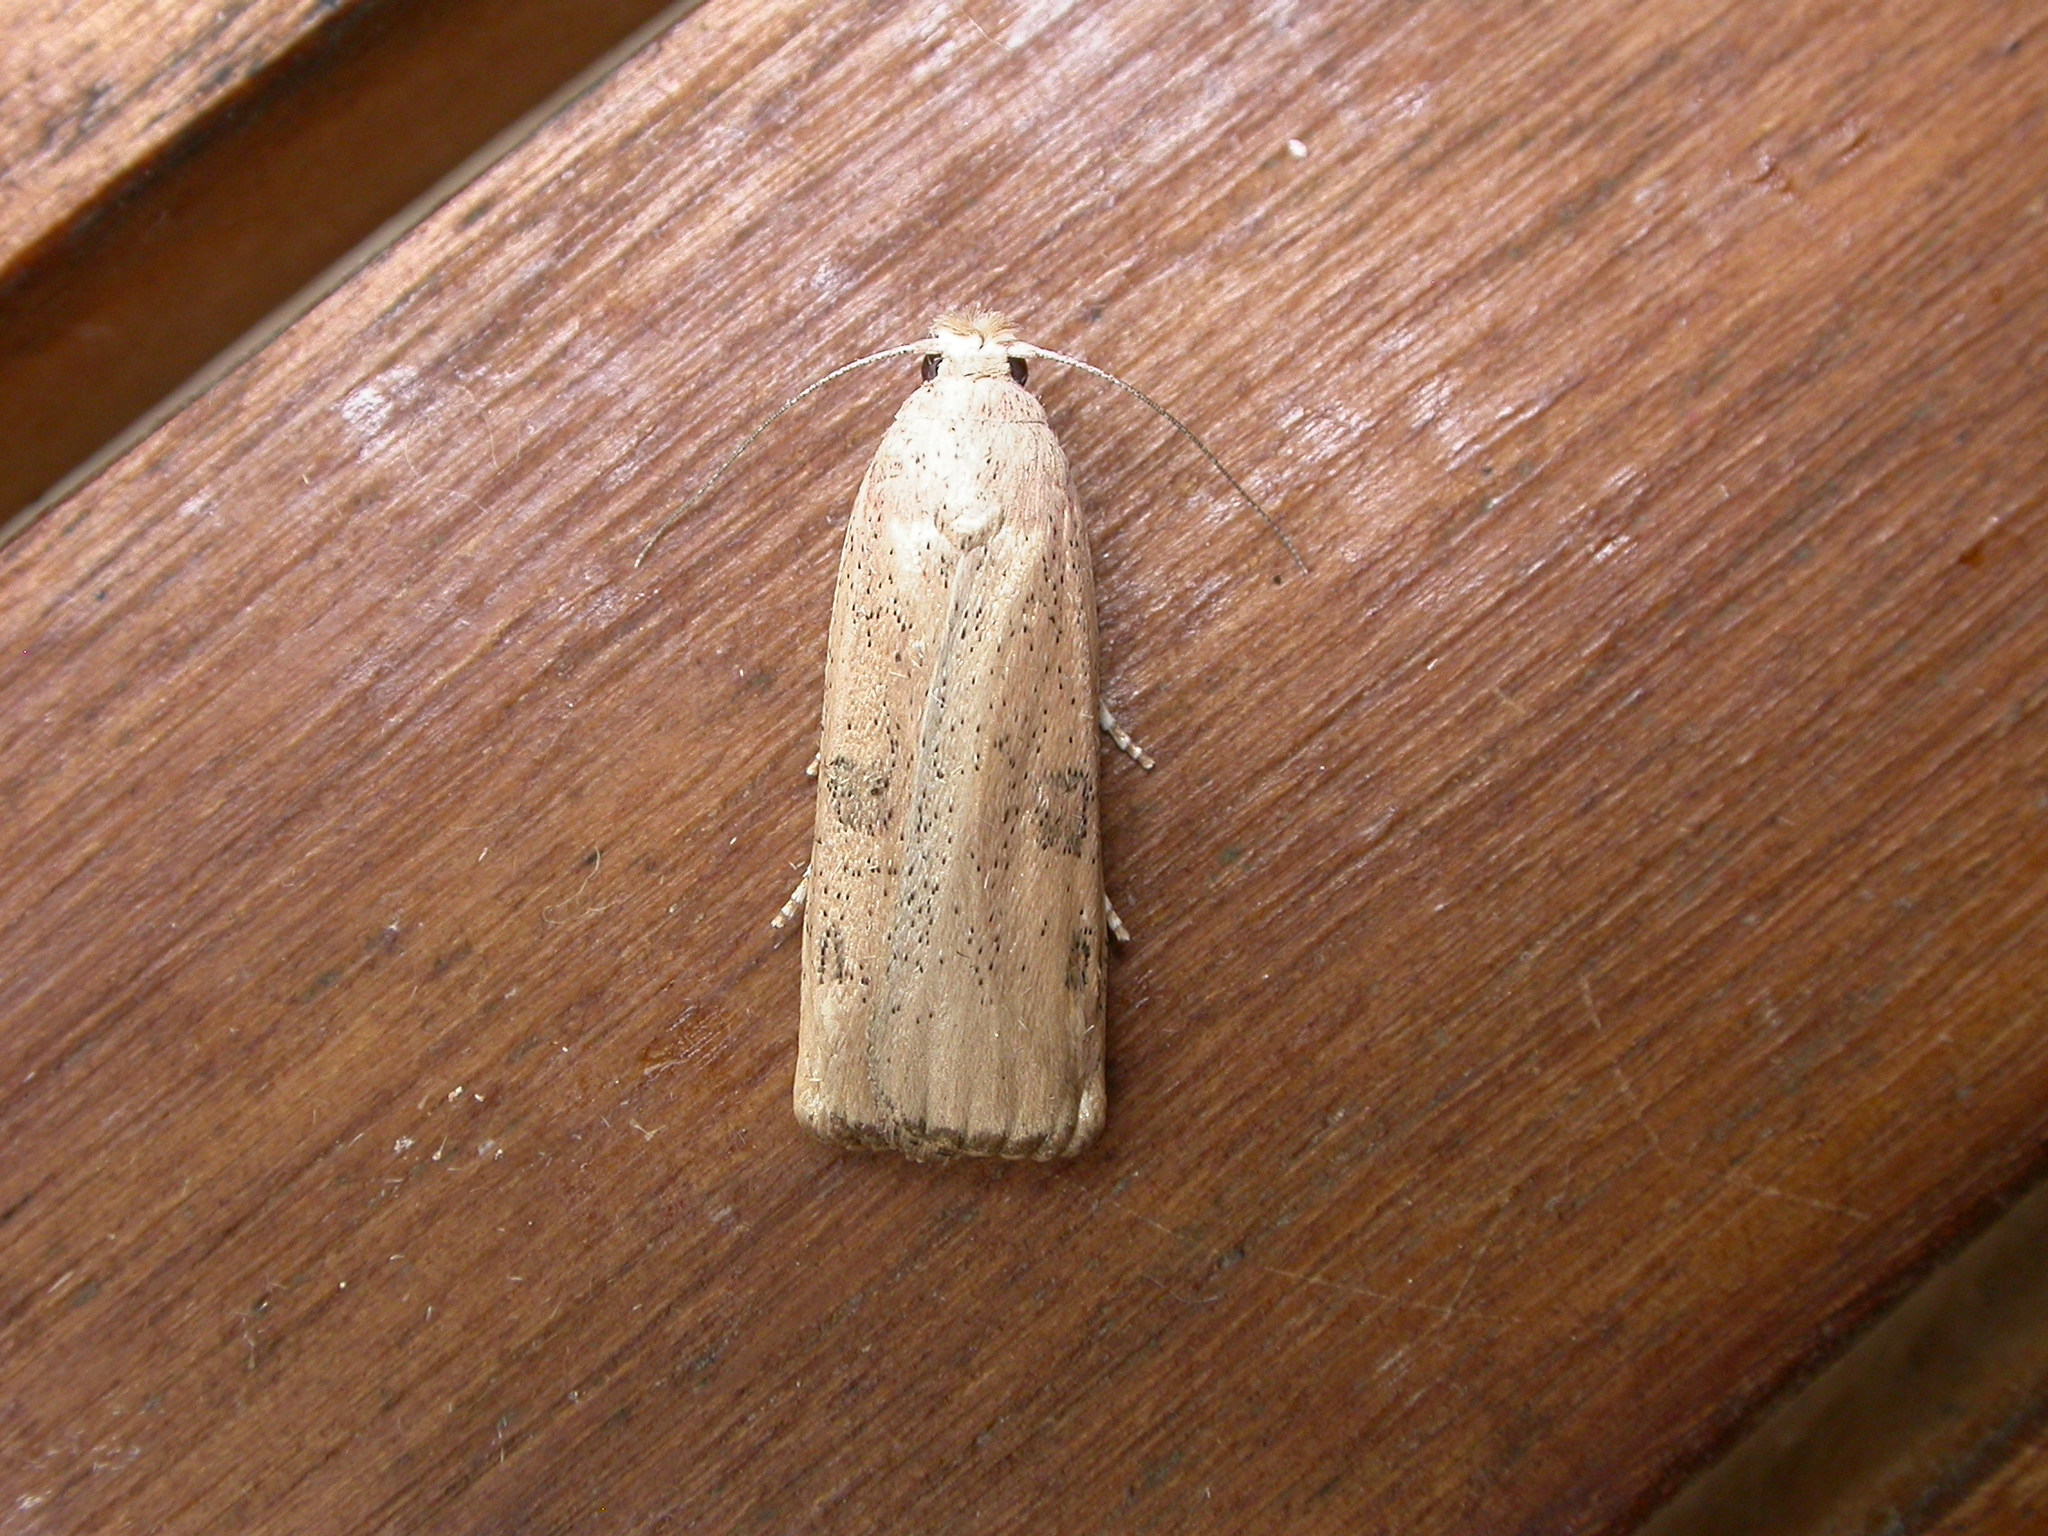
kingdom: Animalia
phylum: Arthropoda
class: Insecta
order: Lepidoptera
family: Pyralidae
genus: Tirathaba
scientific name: Tirathaba rufivena
